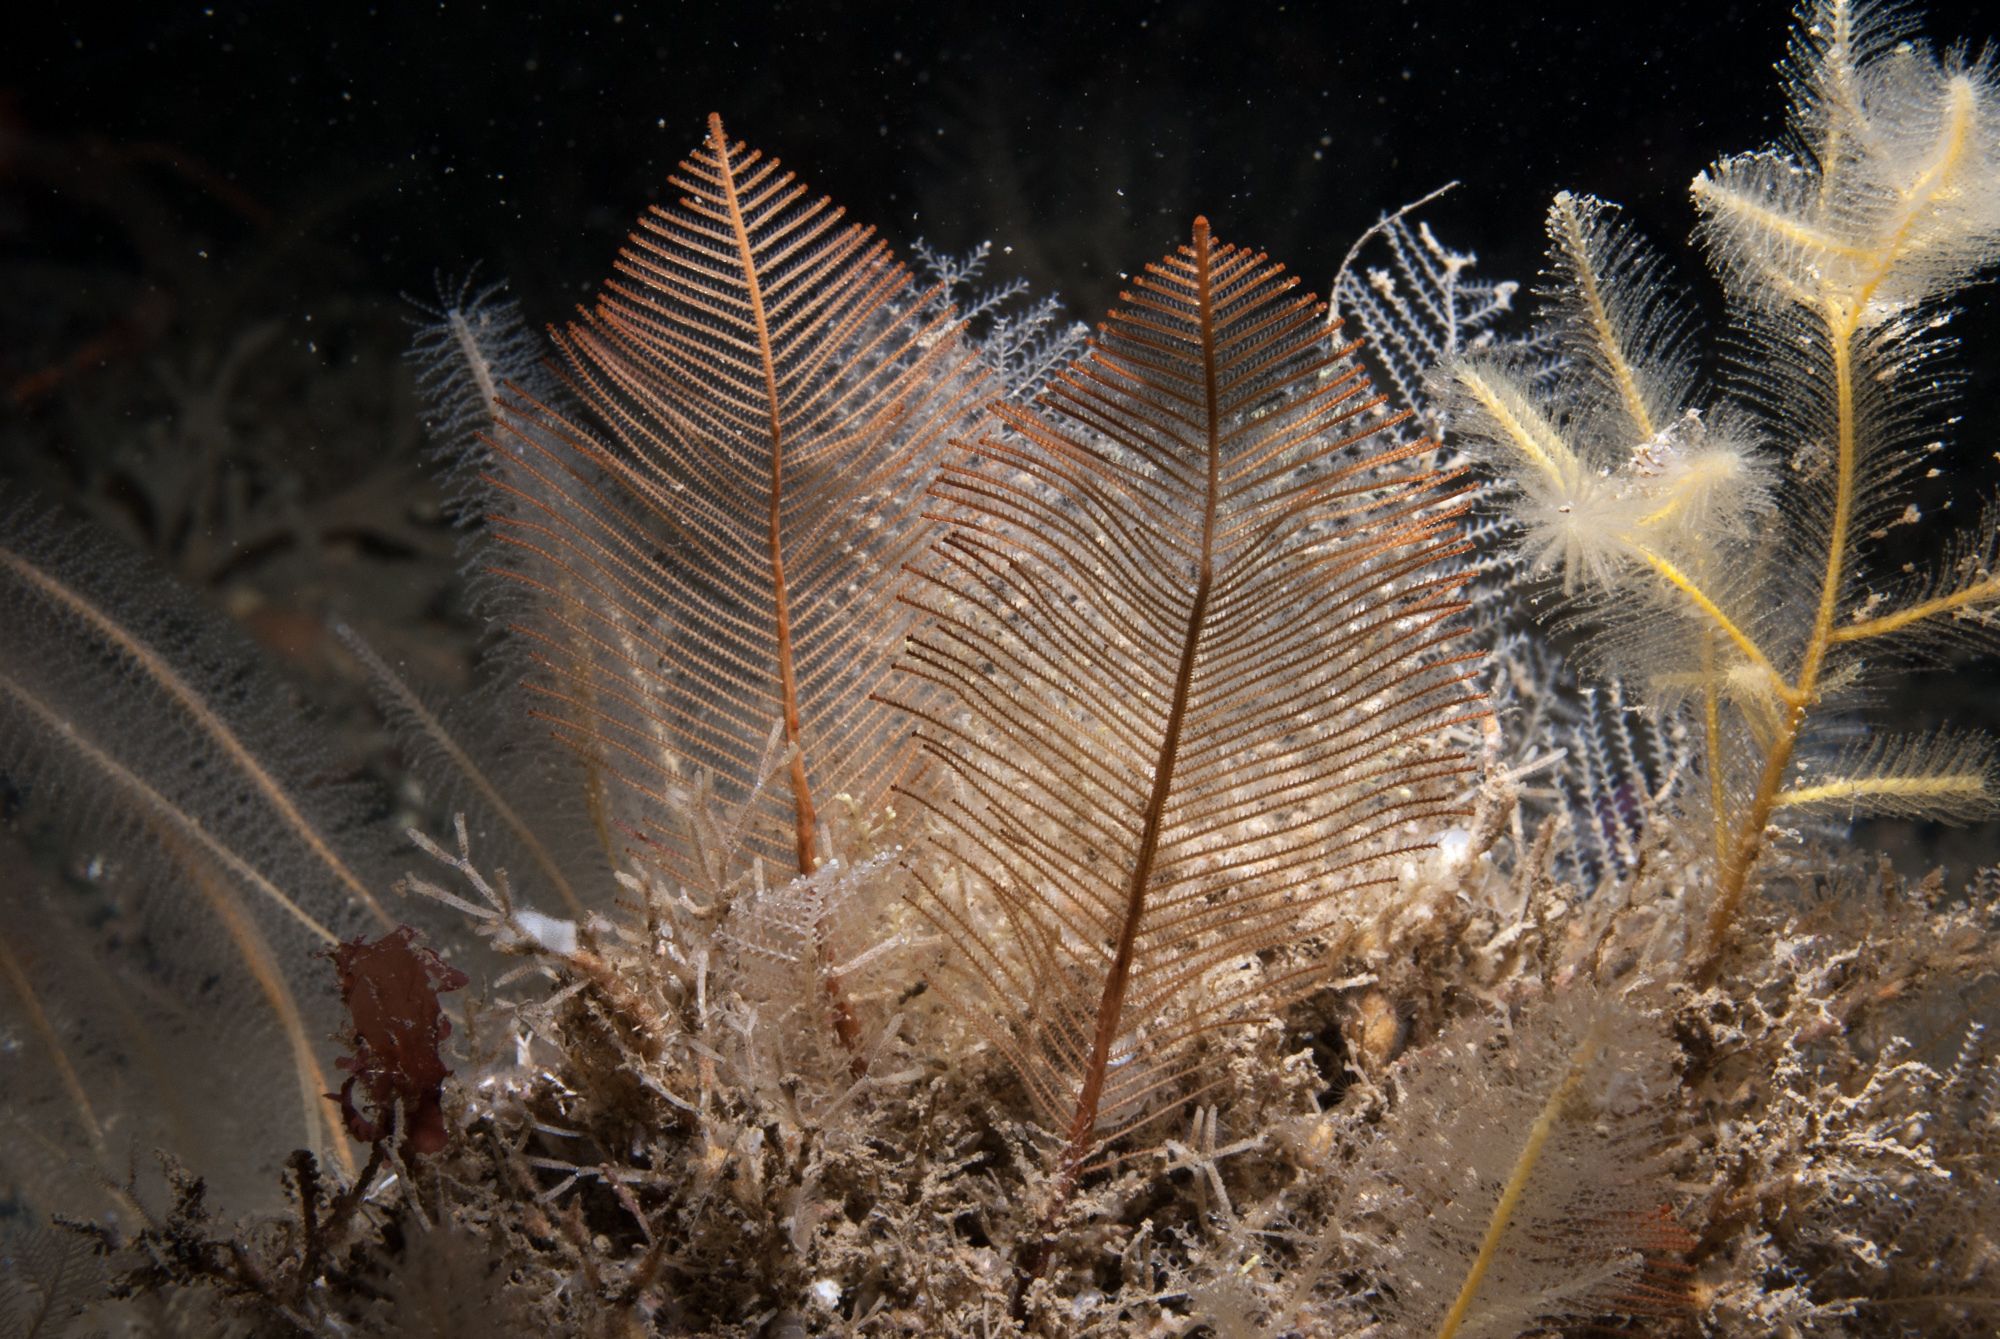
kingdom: Animalia
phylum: Cnidaria
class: Hydrozoa
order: Leptothecata
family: Sertulariidae
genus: Diphasia
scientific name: Diphasia alata
